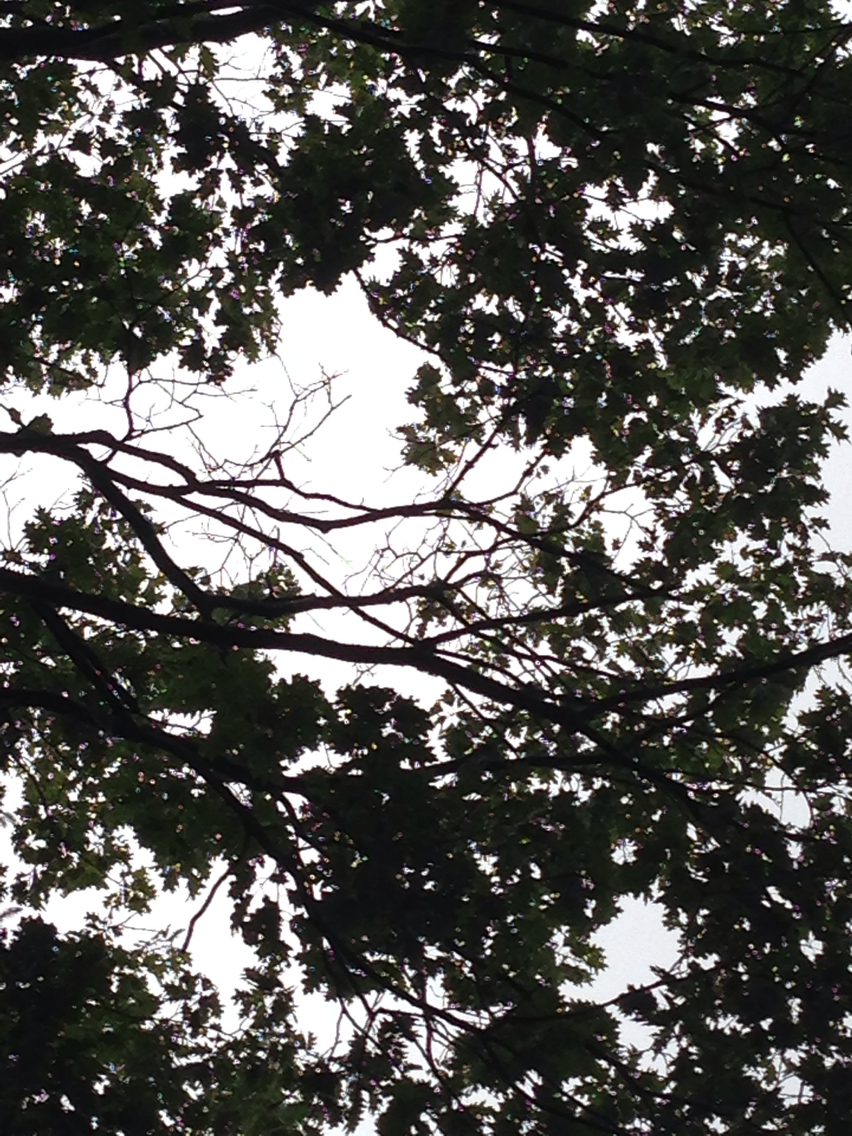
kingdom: Plantae
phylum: Tracheophyta
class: Magnoliopsida
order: Fagales
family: Fagaceae
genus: Quercus
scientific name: Quercus rubra
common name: Red oak
